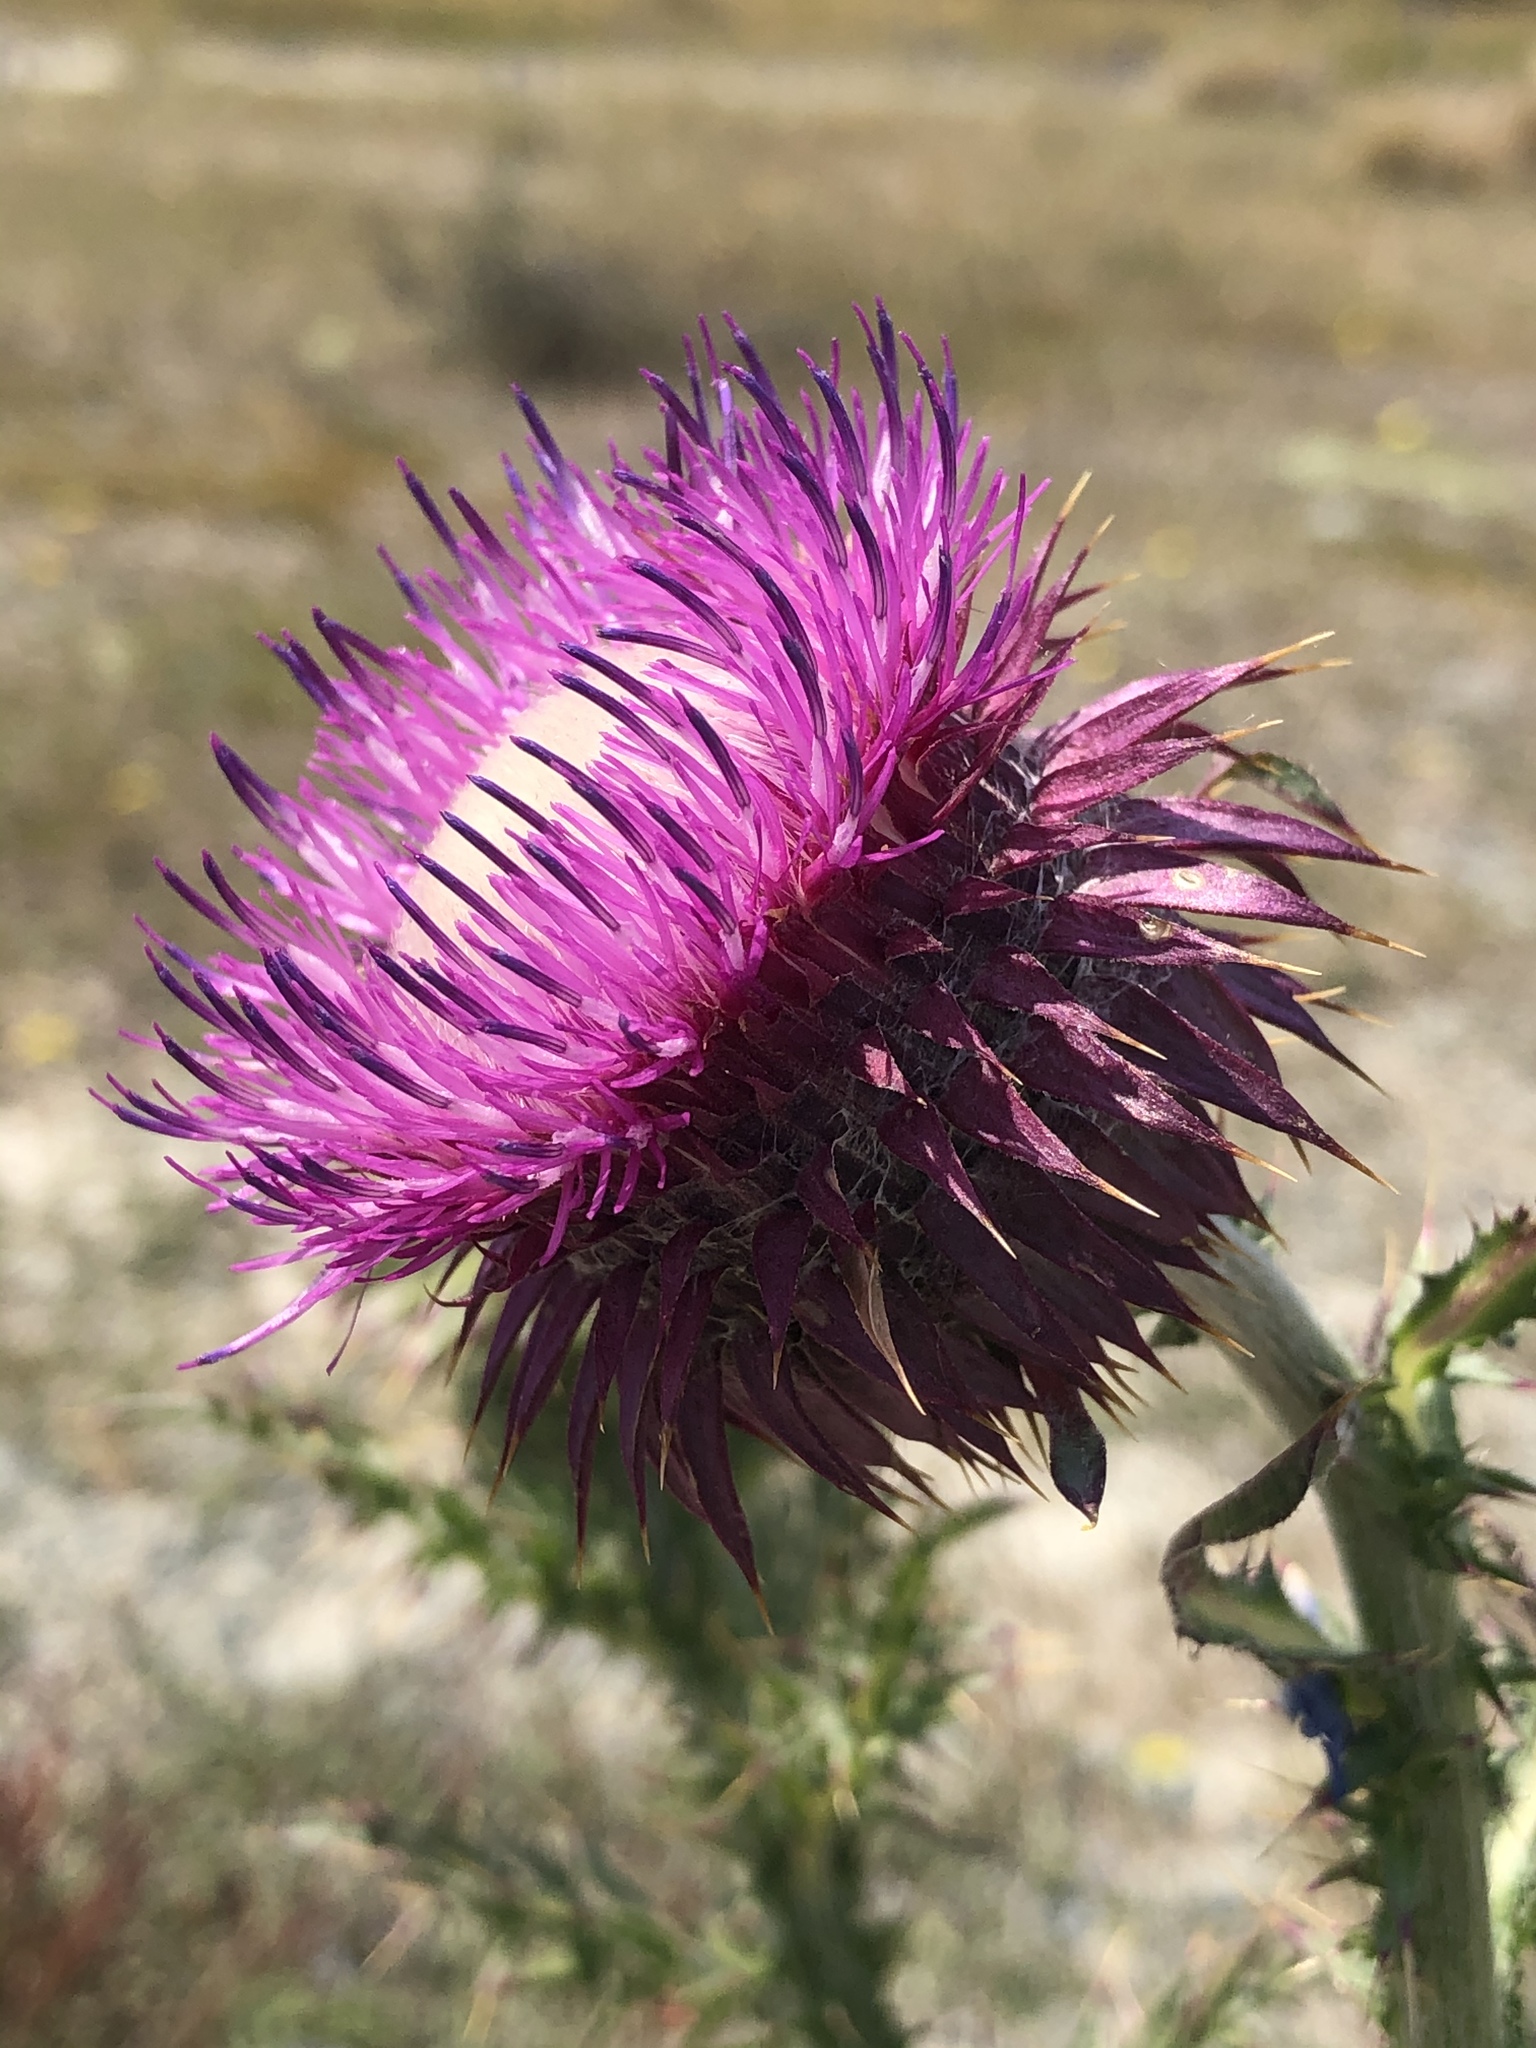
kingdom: Plantae
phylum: Tracheophyta
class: Magnoliopsida
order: Asterales
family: Asteraceae
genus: Carduus
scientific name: Carduus nutans
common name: Musk thistle
